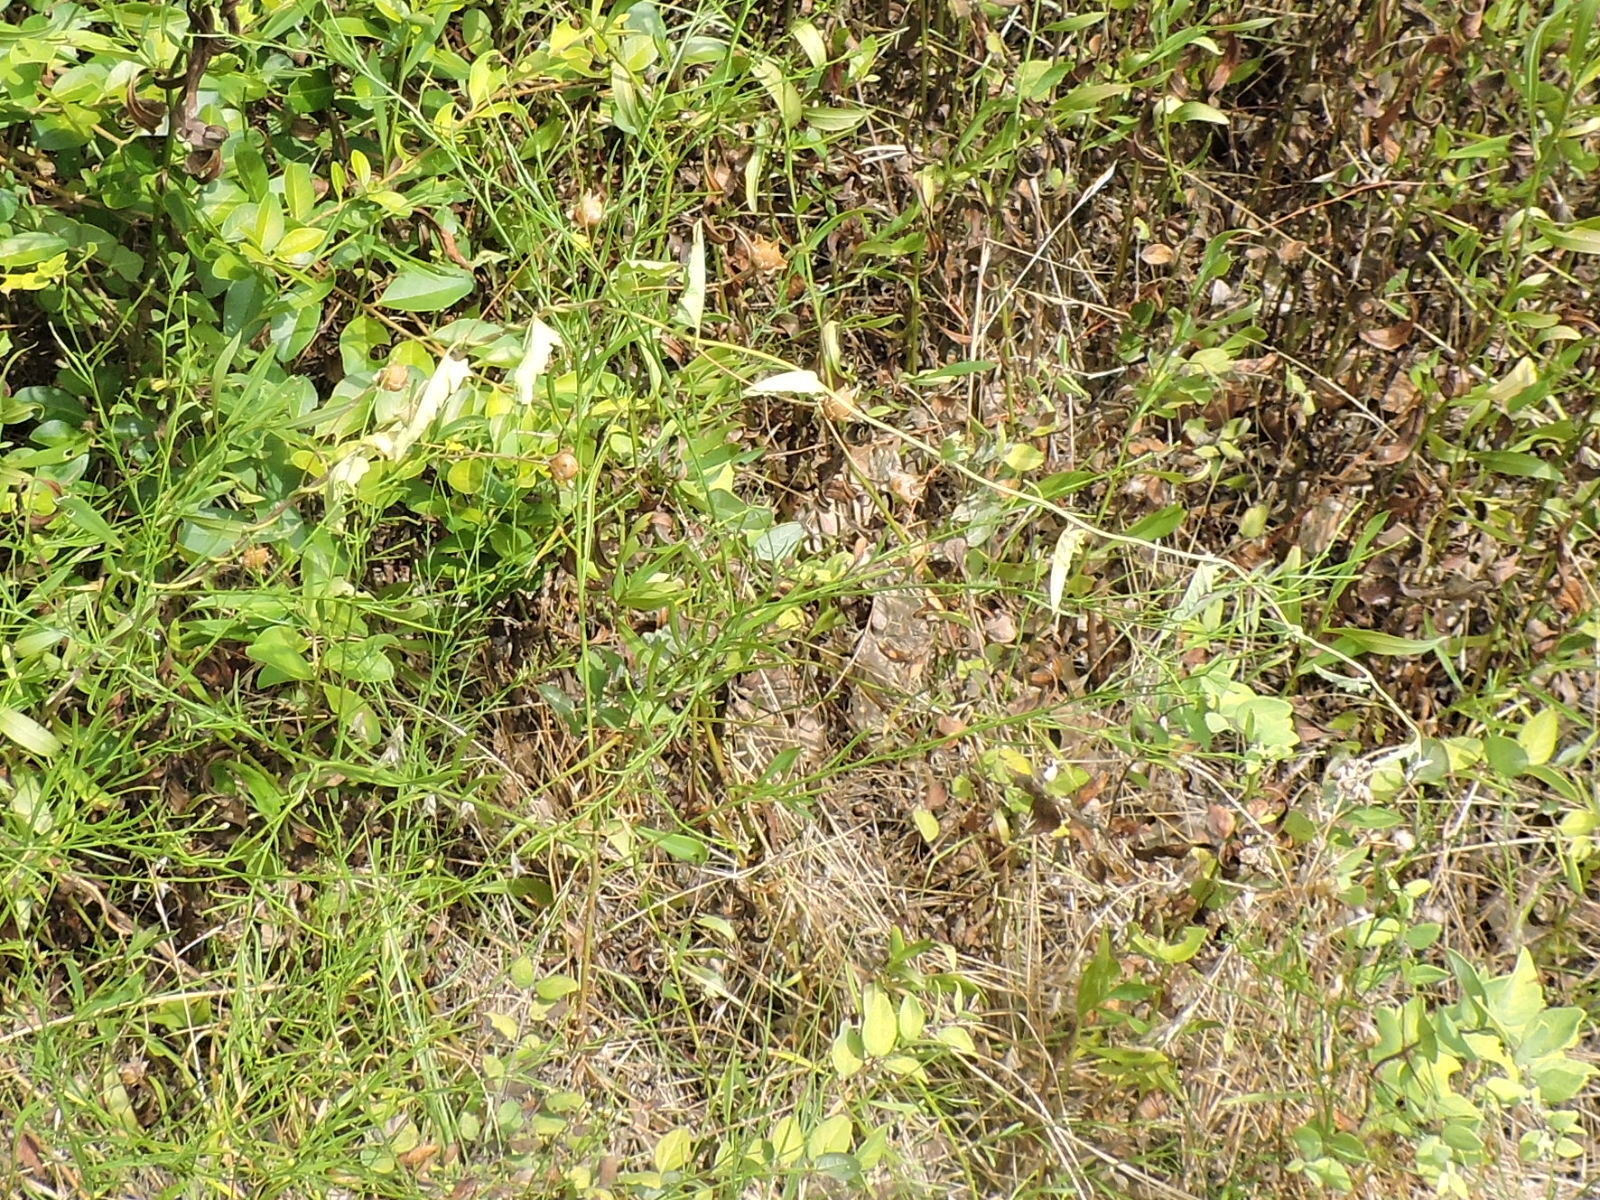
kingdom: Plantae
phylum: Tracheophyta
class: Magnoliopsida
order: Solanales
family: Convolvulaceae
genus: Convolvulus
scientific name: Convolvulus equitans
